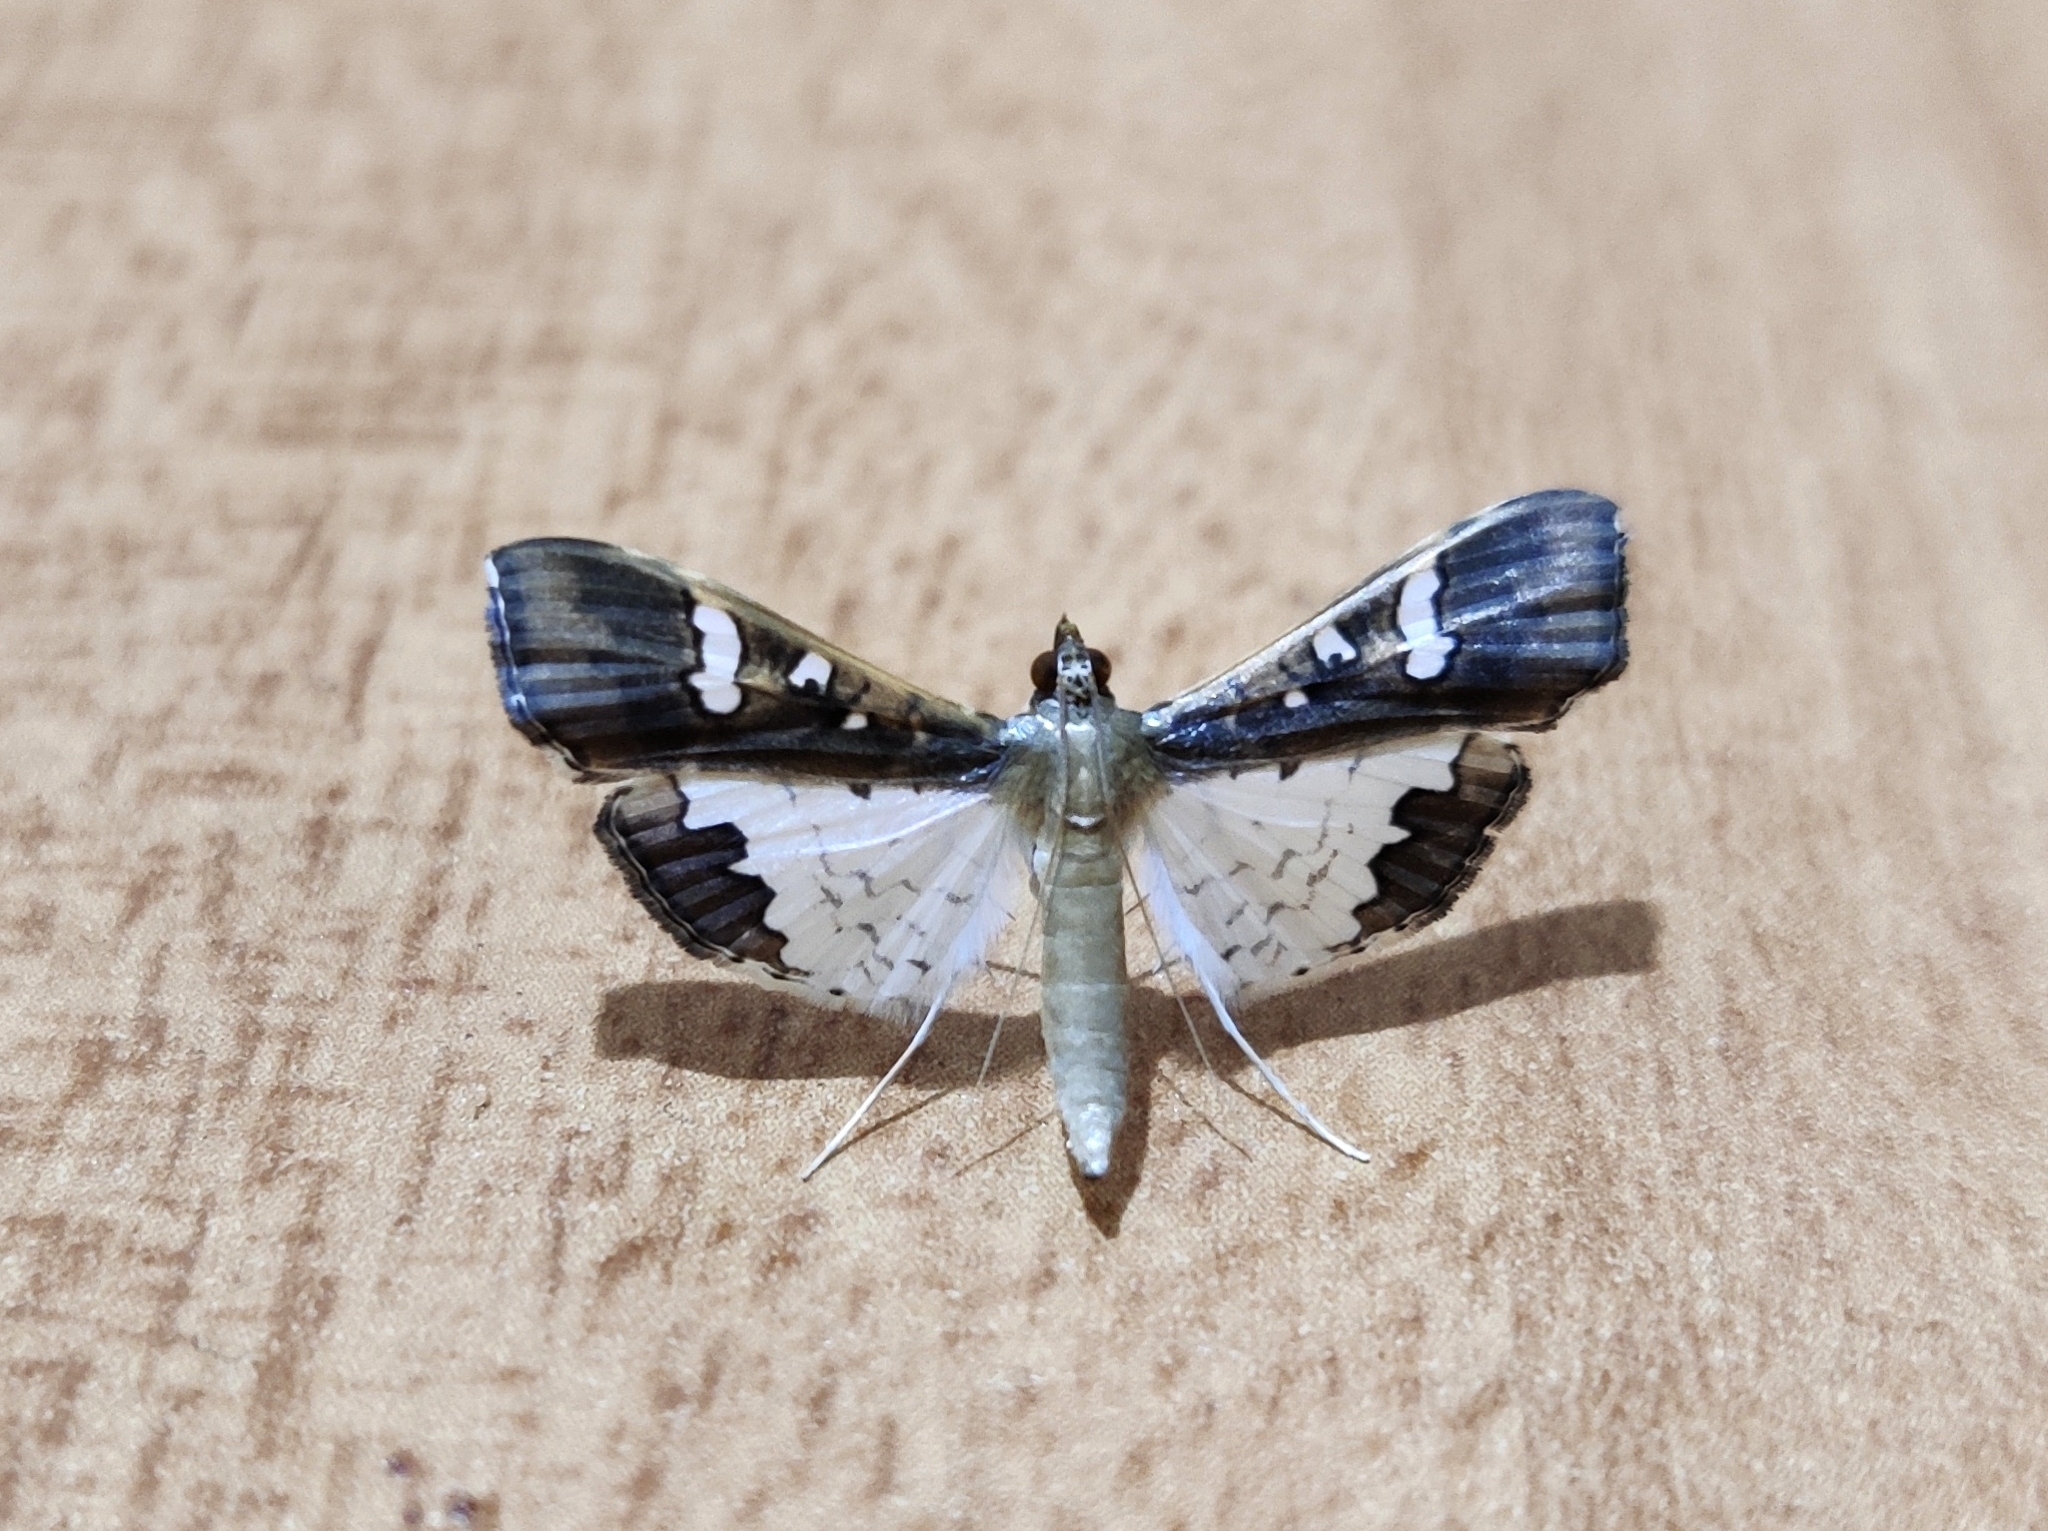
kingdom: Animalia
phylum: Arthropoda
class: Insecta
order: Lepidoptera
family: Crambidae
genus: Maruca
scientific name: Maruca vitrata
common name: Maruca pod borer
